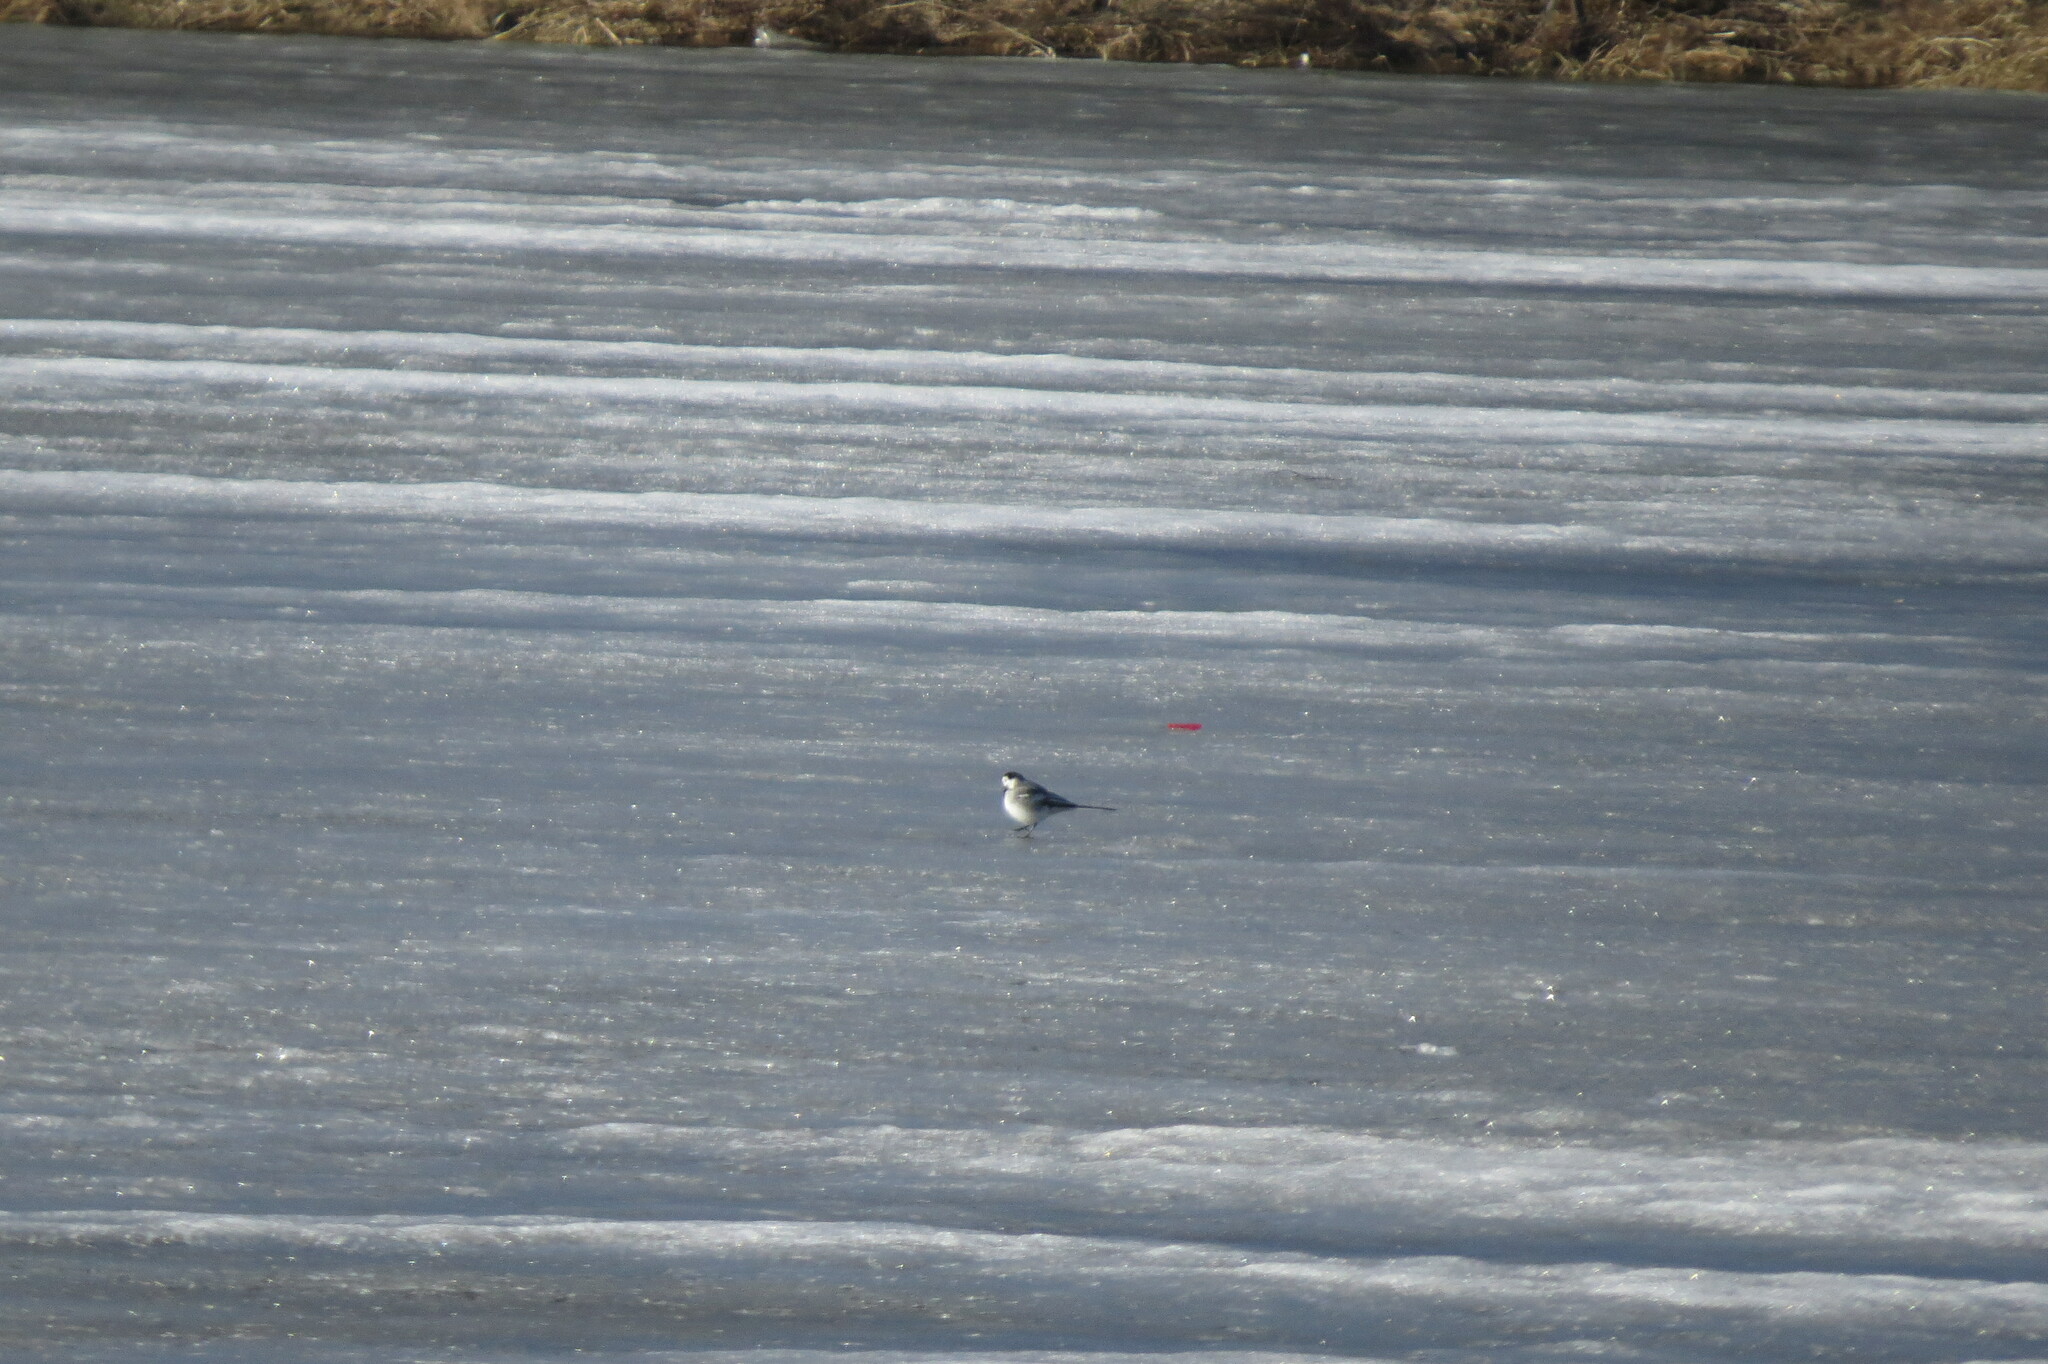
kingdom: Animalia
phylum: Chordata
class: Aves
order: Passeriformes
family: Motacillidae
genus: Motacilla
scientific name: Motacilla alba
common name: White wagtail
